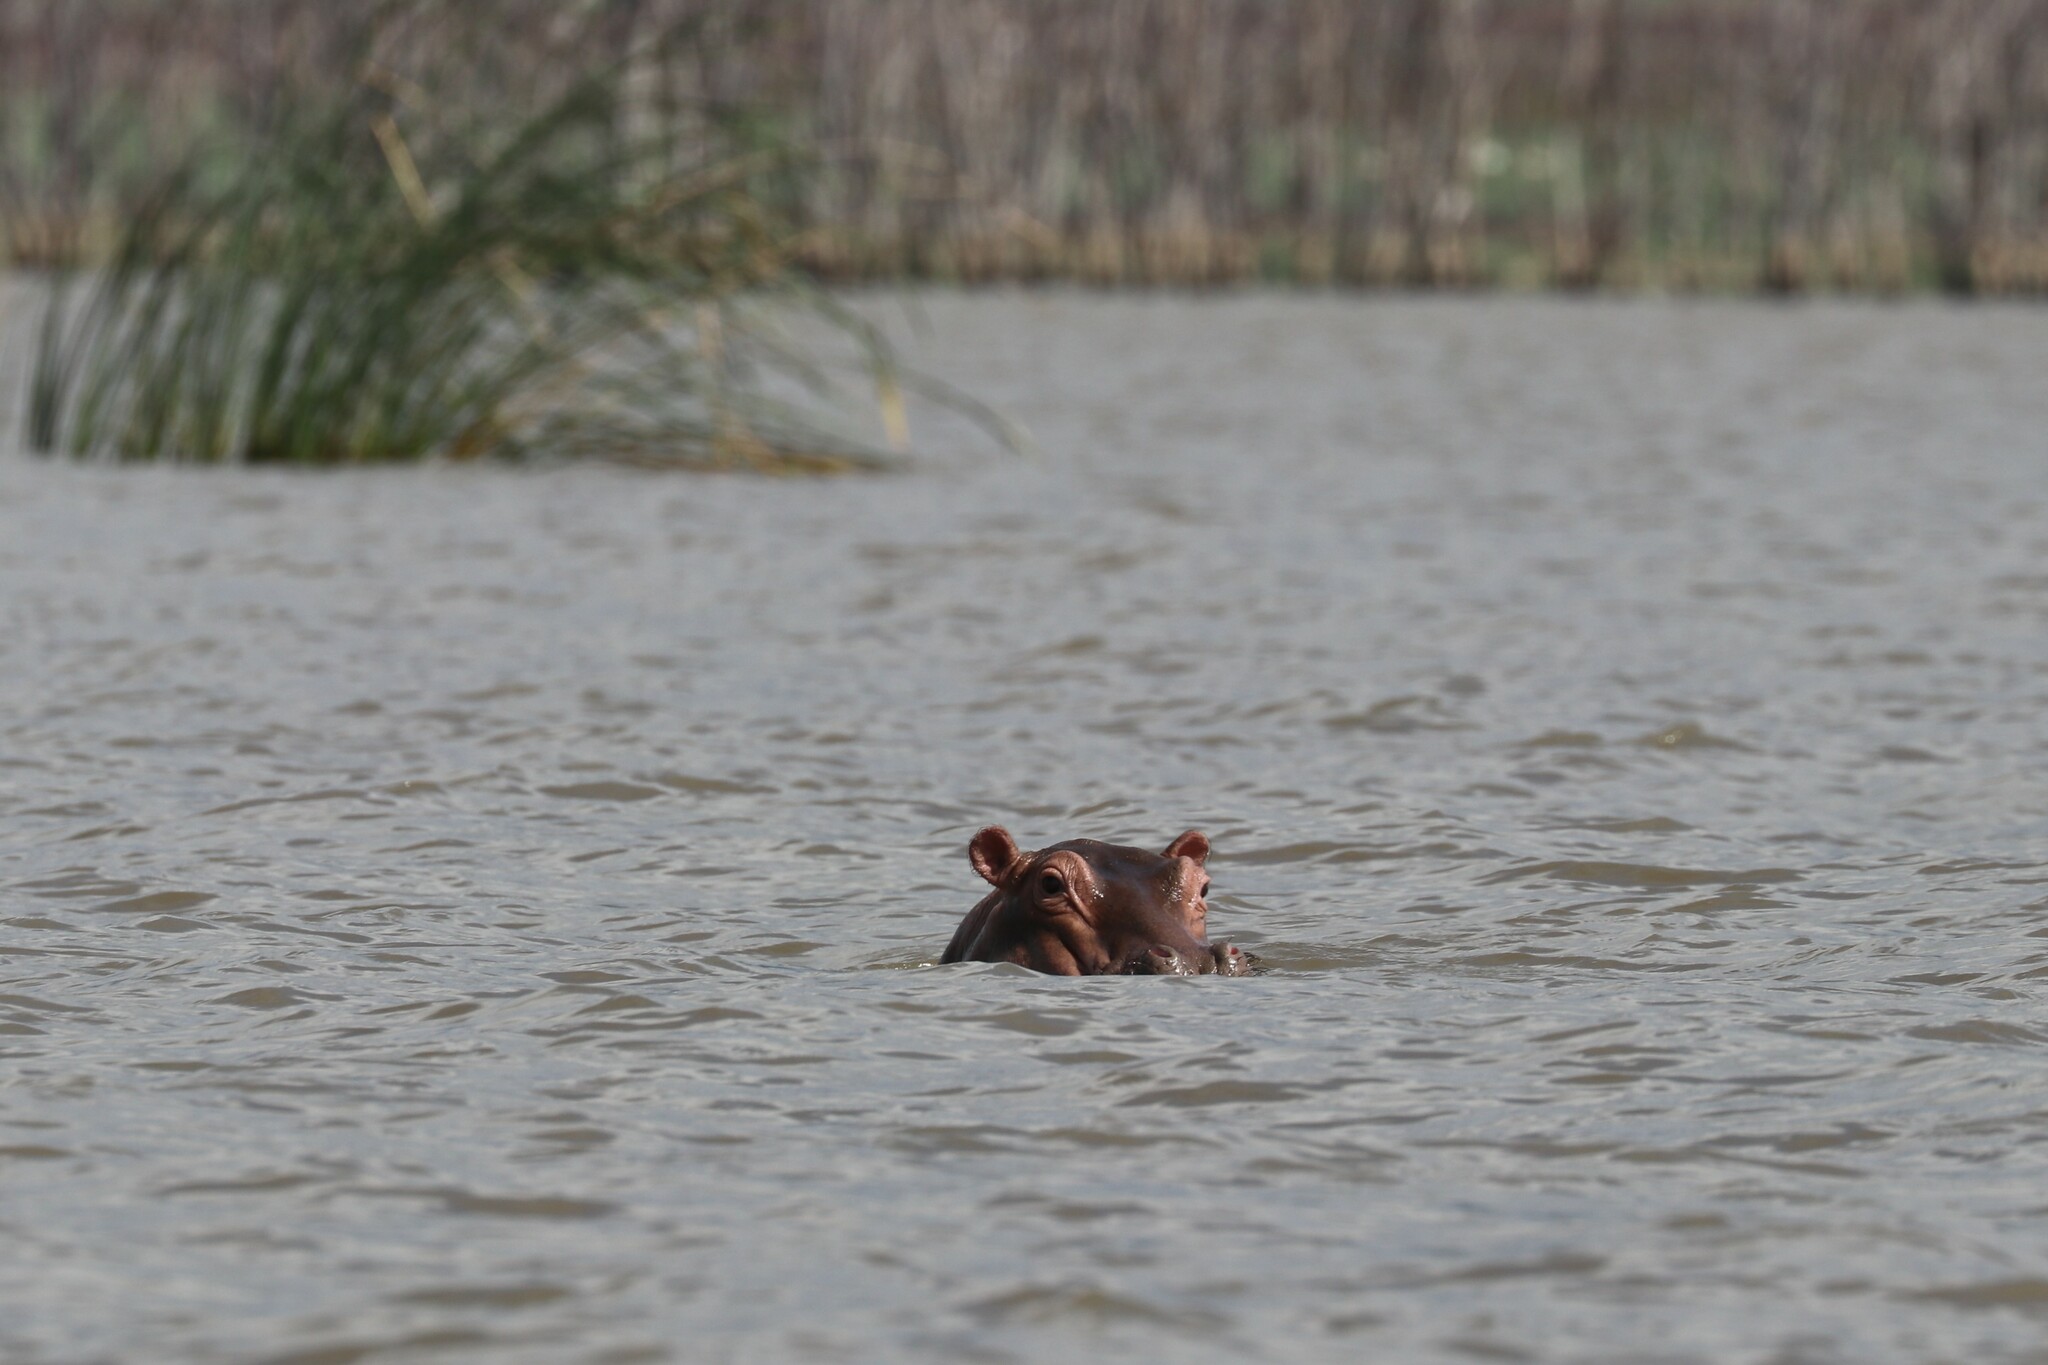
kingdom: Animalia
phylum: Chordata
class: Mammalia
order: Artiodactyla
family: Hippopotamidae
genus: Hippopotamus
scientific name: Hippopotamus amphibius
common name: Common hippopotamus
